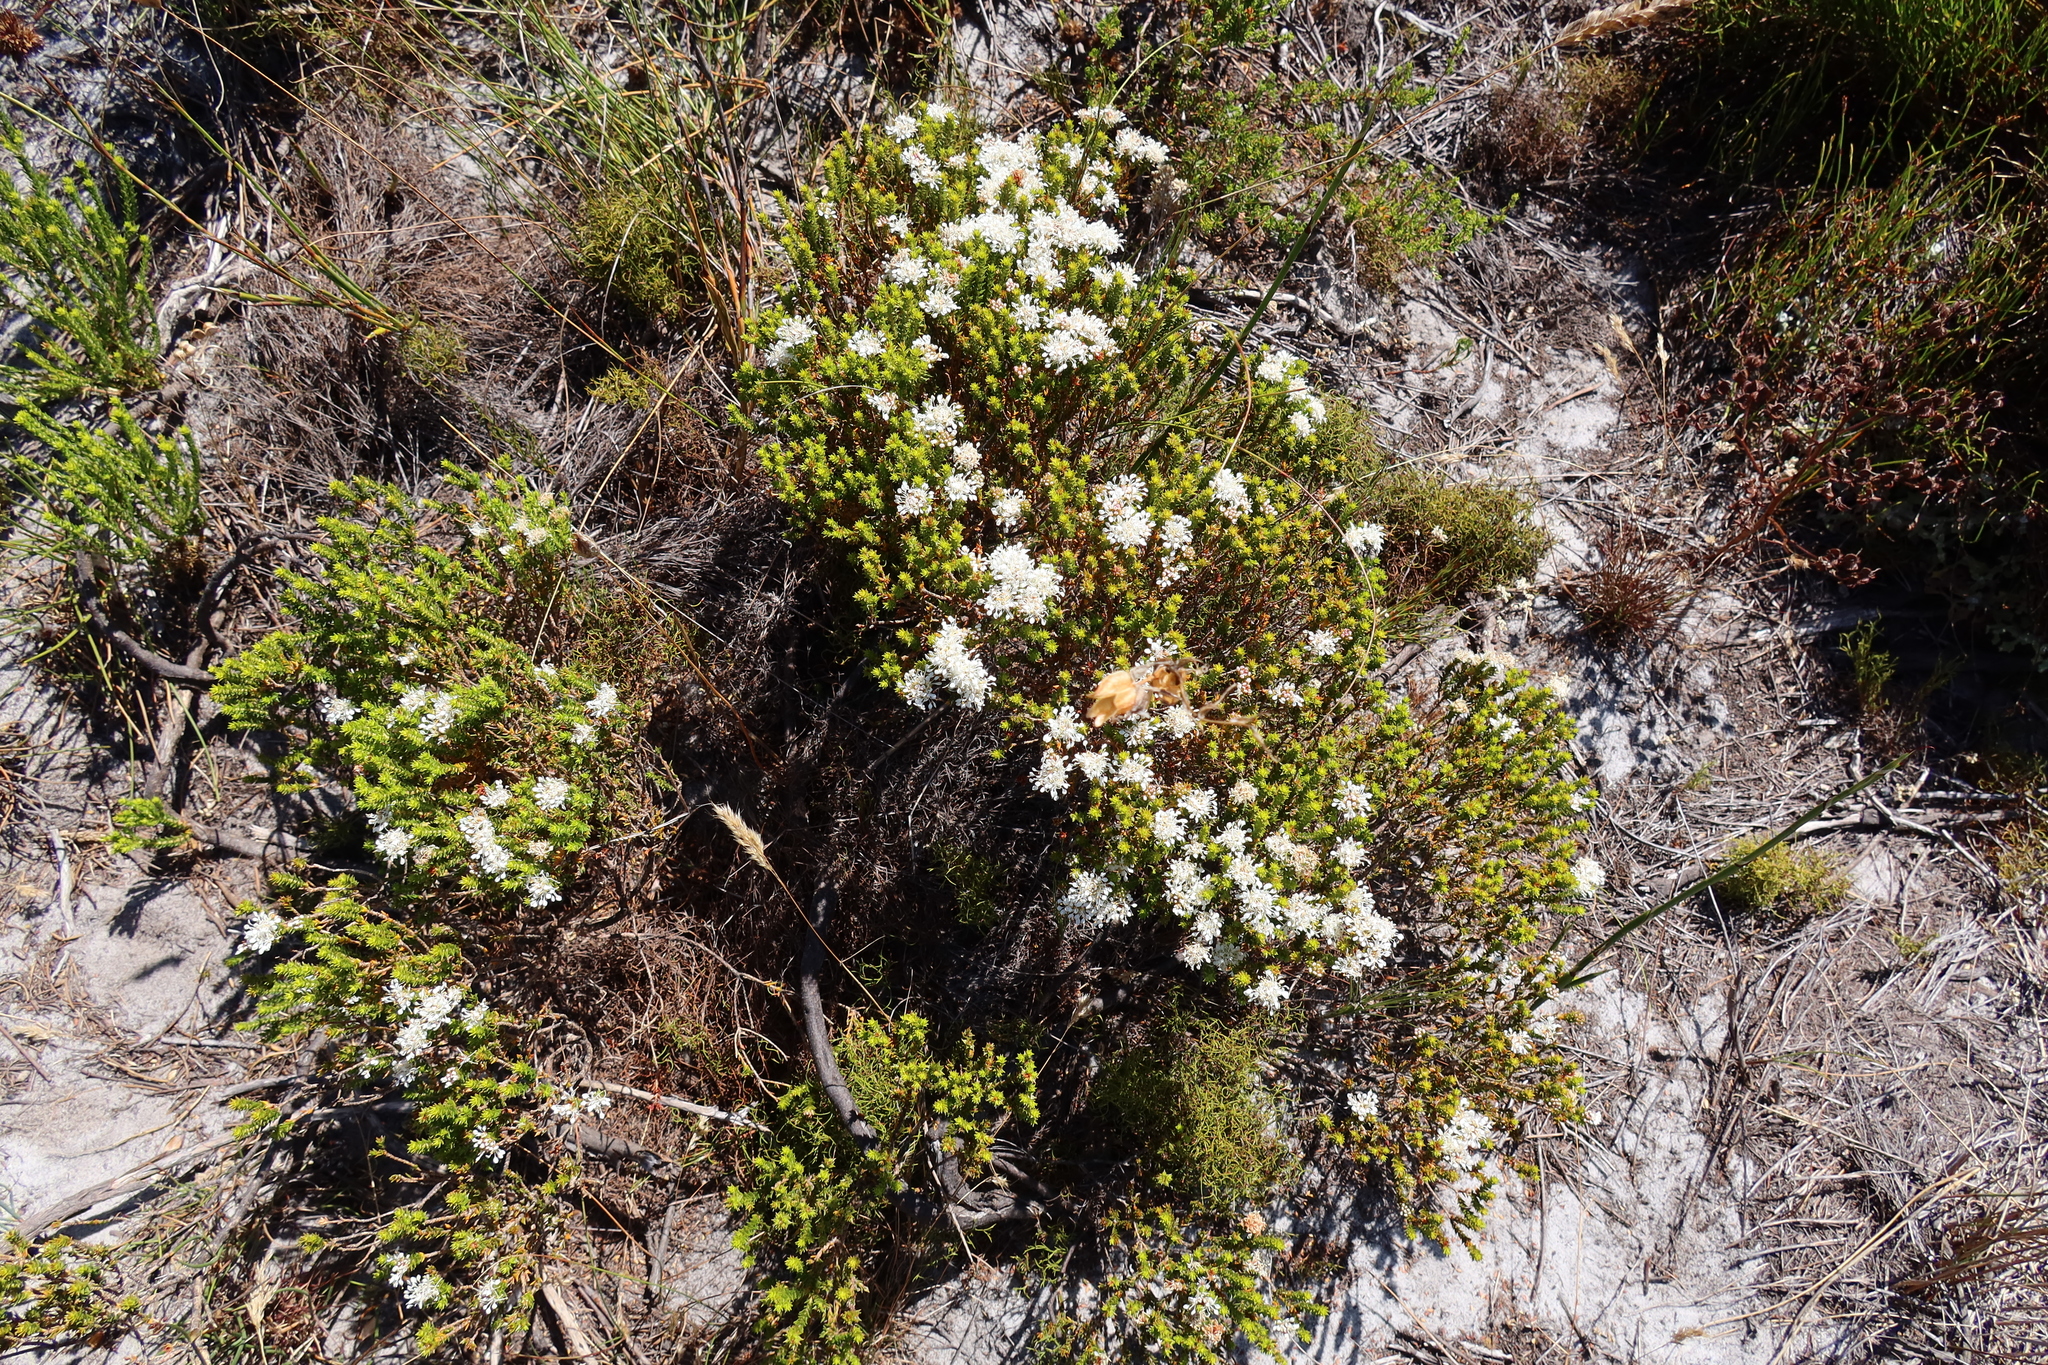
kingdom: Plantae
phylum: Tracheophyta
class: Magnoliopsida
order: Sapindales
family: Rutaceae
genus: Agathosma
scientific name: Agathosma imbricata
